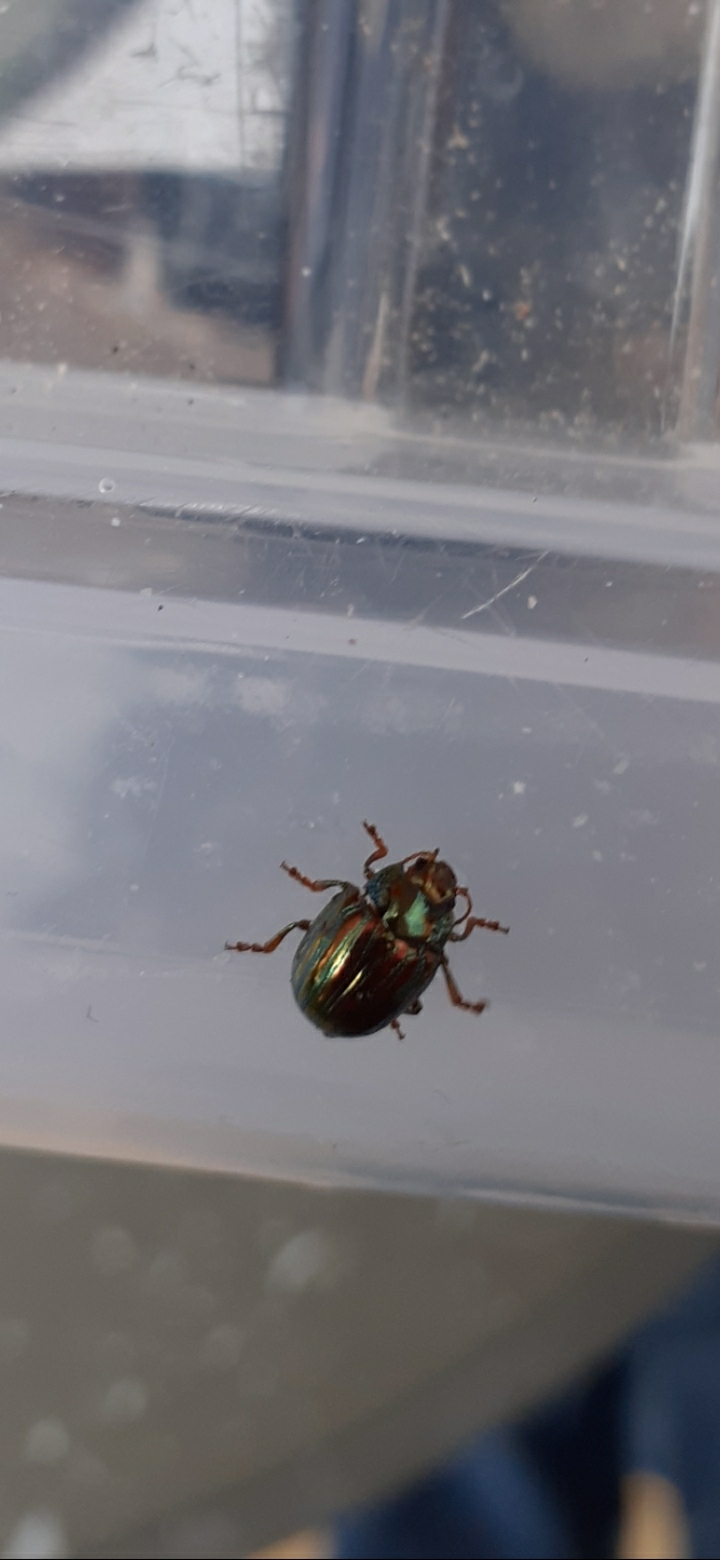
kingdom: Animalia
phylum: Arthropoda
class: Insecta
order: Coleoptera
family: Chrysomelidae
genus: Chrysolina
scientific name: Chrysolina americana
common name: Rosemary beetle
